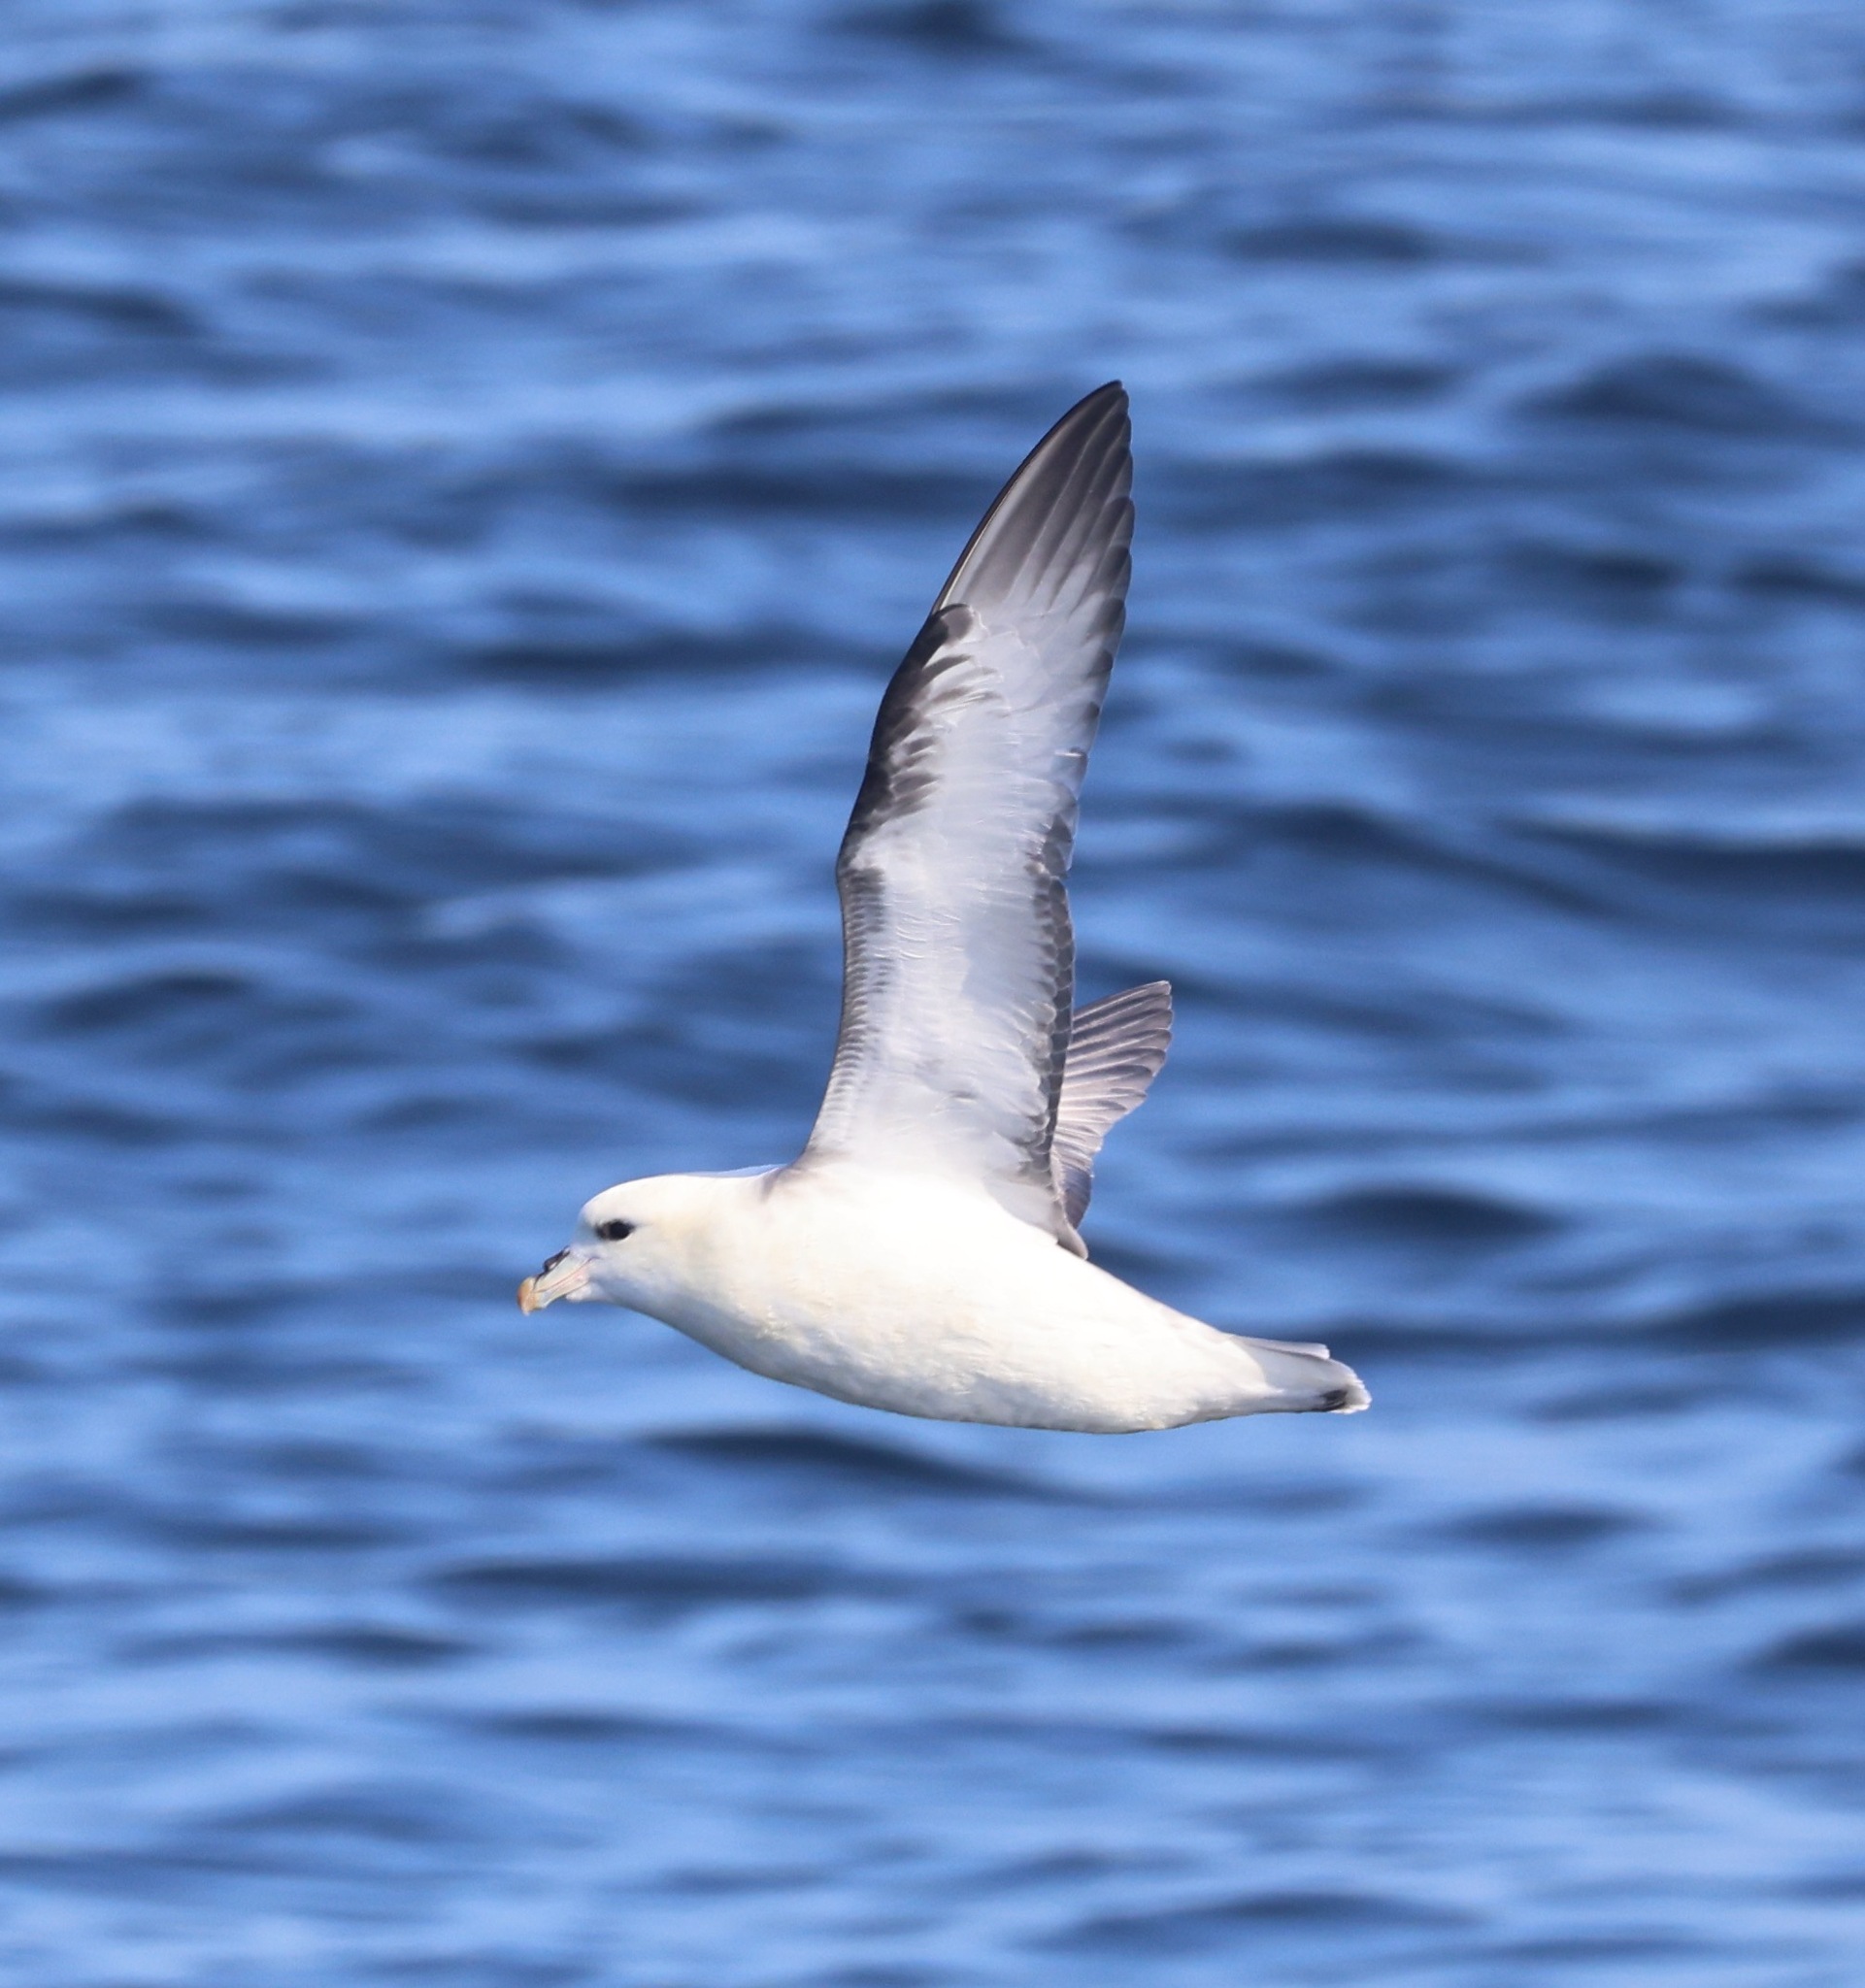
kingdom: Animalia
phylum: Chordata
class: Aves
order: Procellariiformes
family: Procellariidae
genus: Fulmarus
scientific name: Fulmarus glacialis
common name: Northern fulmar
